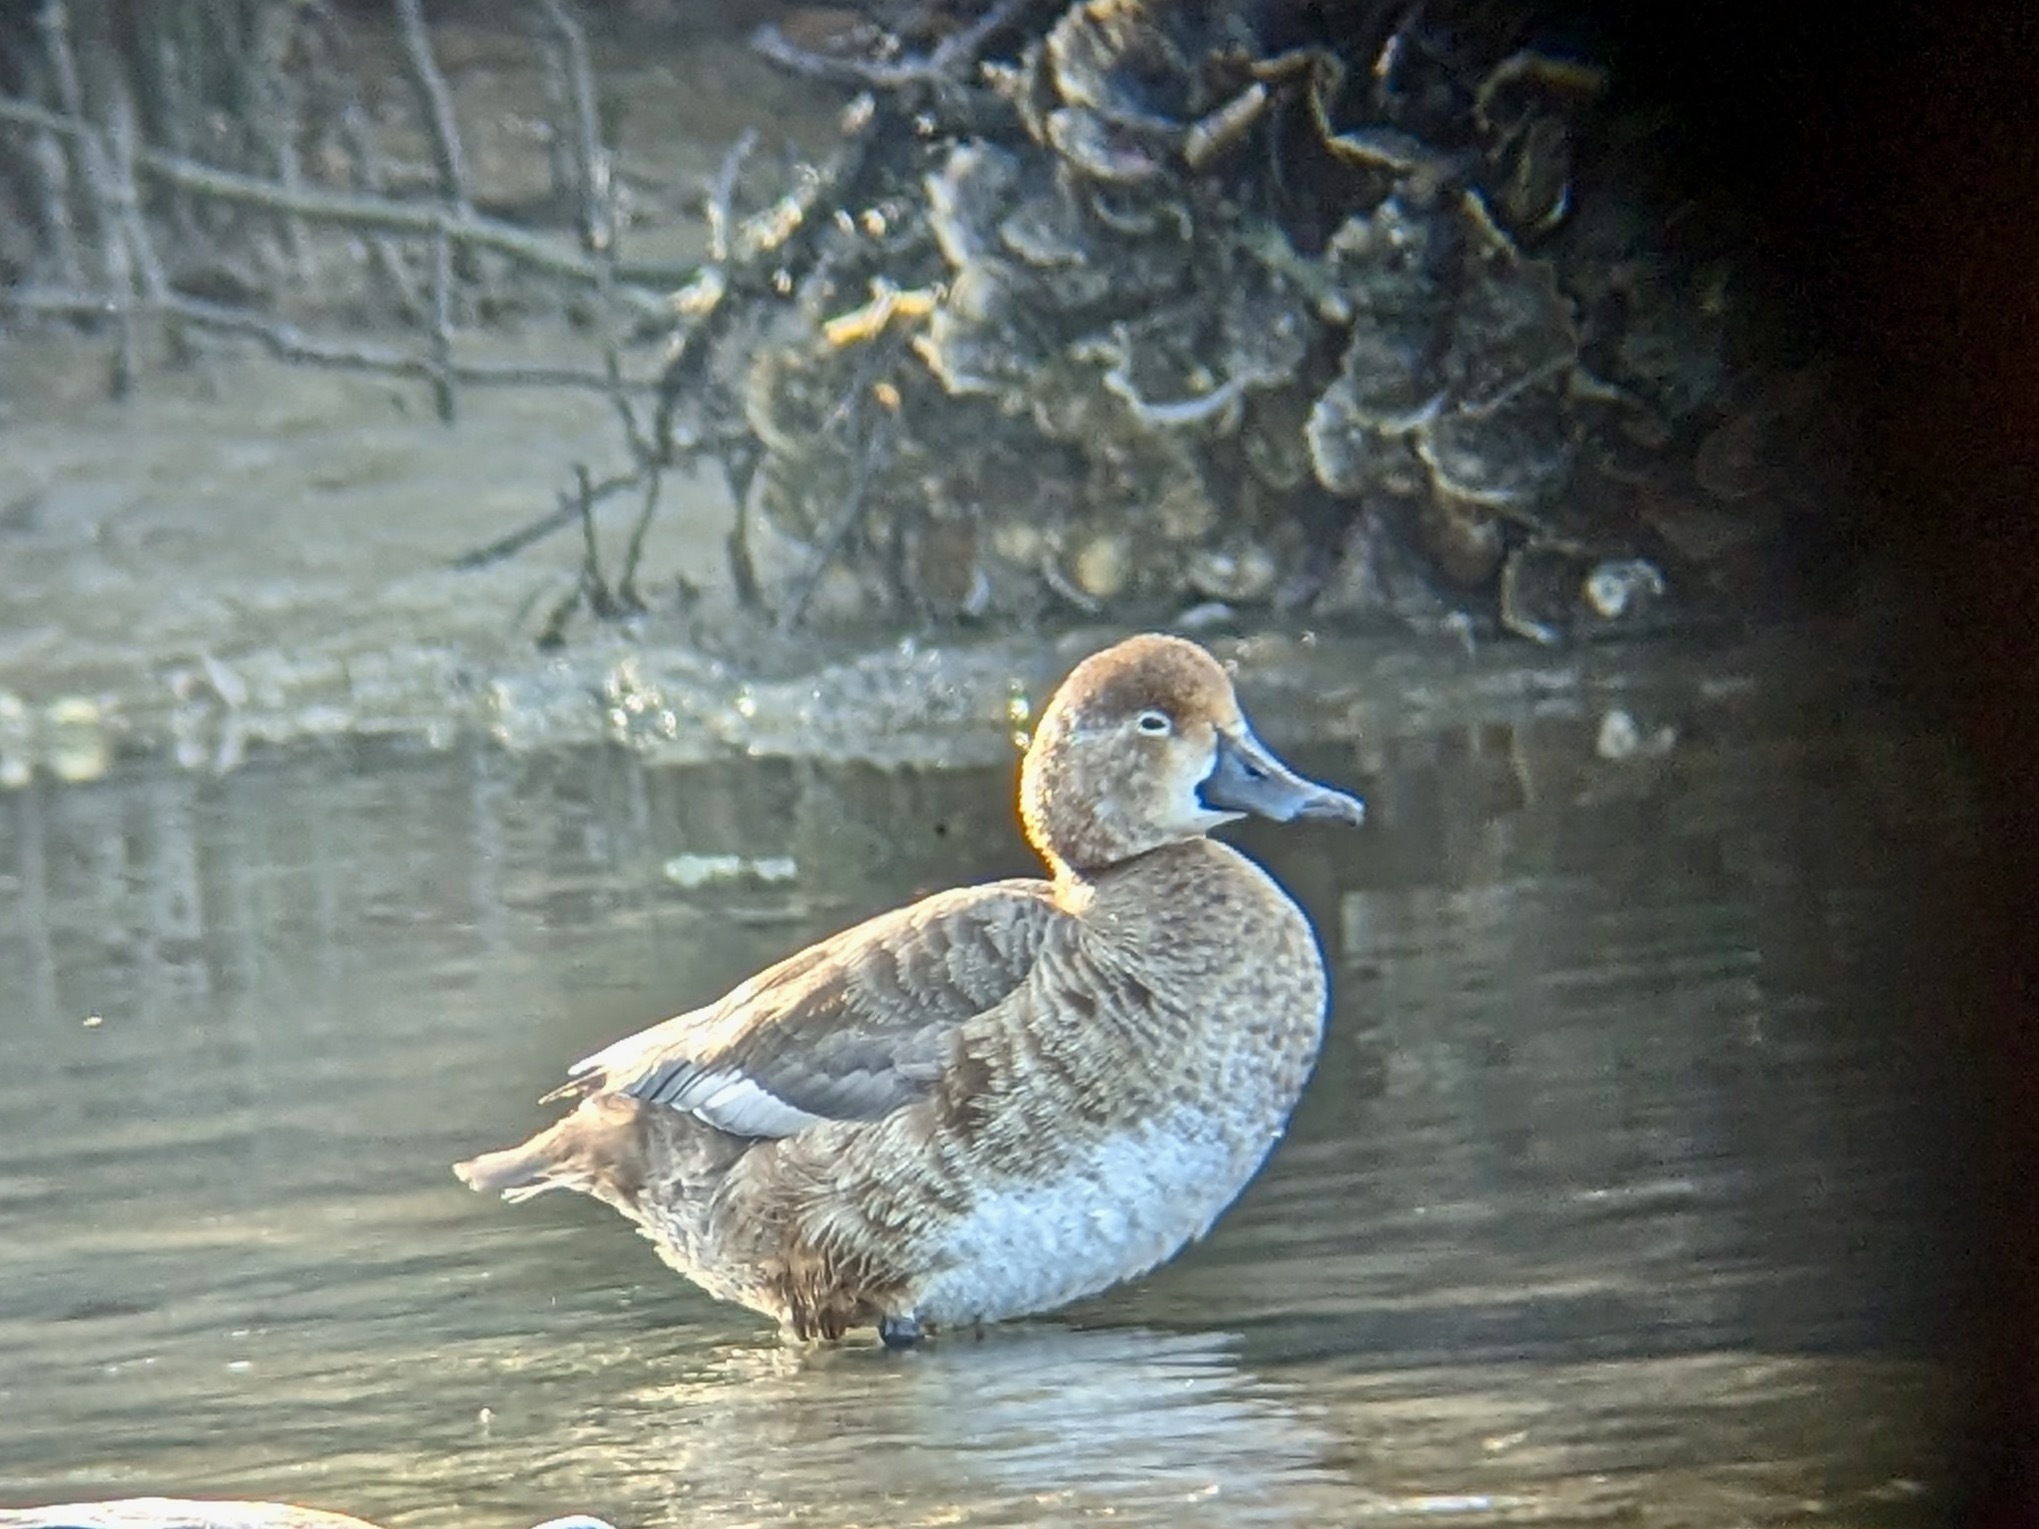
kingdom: Animalia
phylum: Chordata
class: Aves
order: Anseriformes
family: Anatidae
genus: Aythya
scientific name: Aythya americana
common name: Redhead
